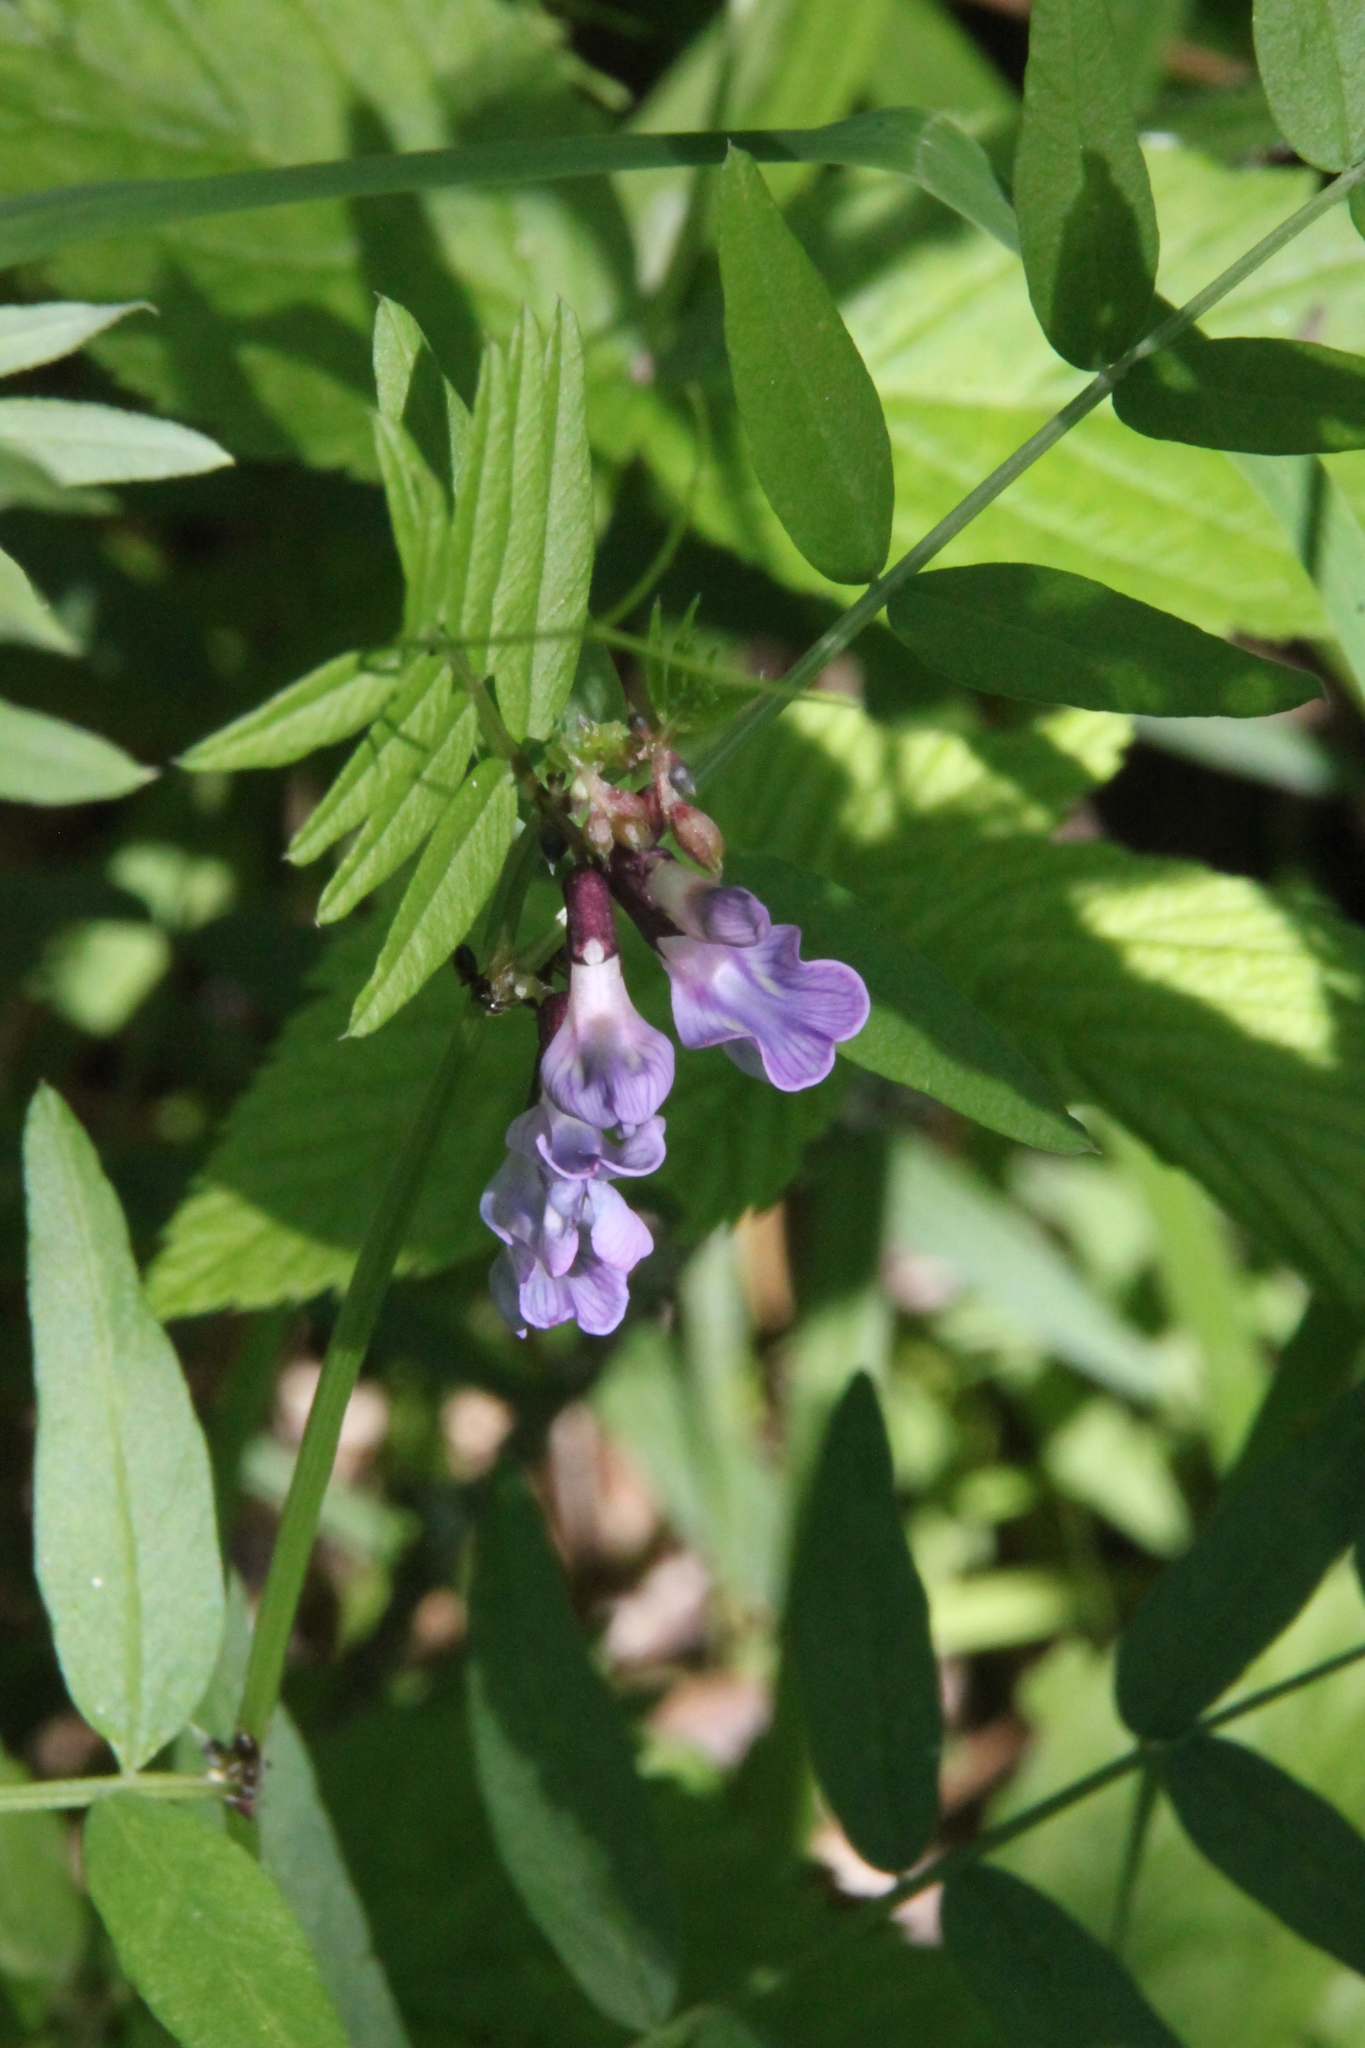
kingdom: Plantae
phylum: Tracheophyta
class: Magnoliopsida
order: Fabales
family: Fabaceae
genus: Vicia
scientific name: Vicia sepium
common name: Bush vetch
